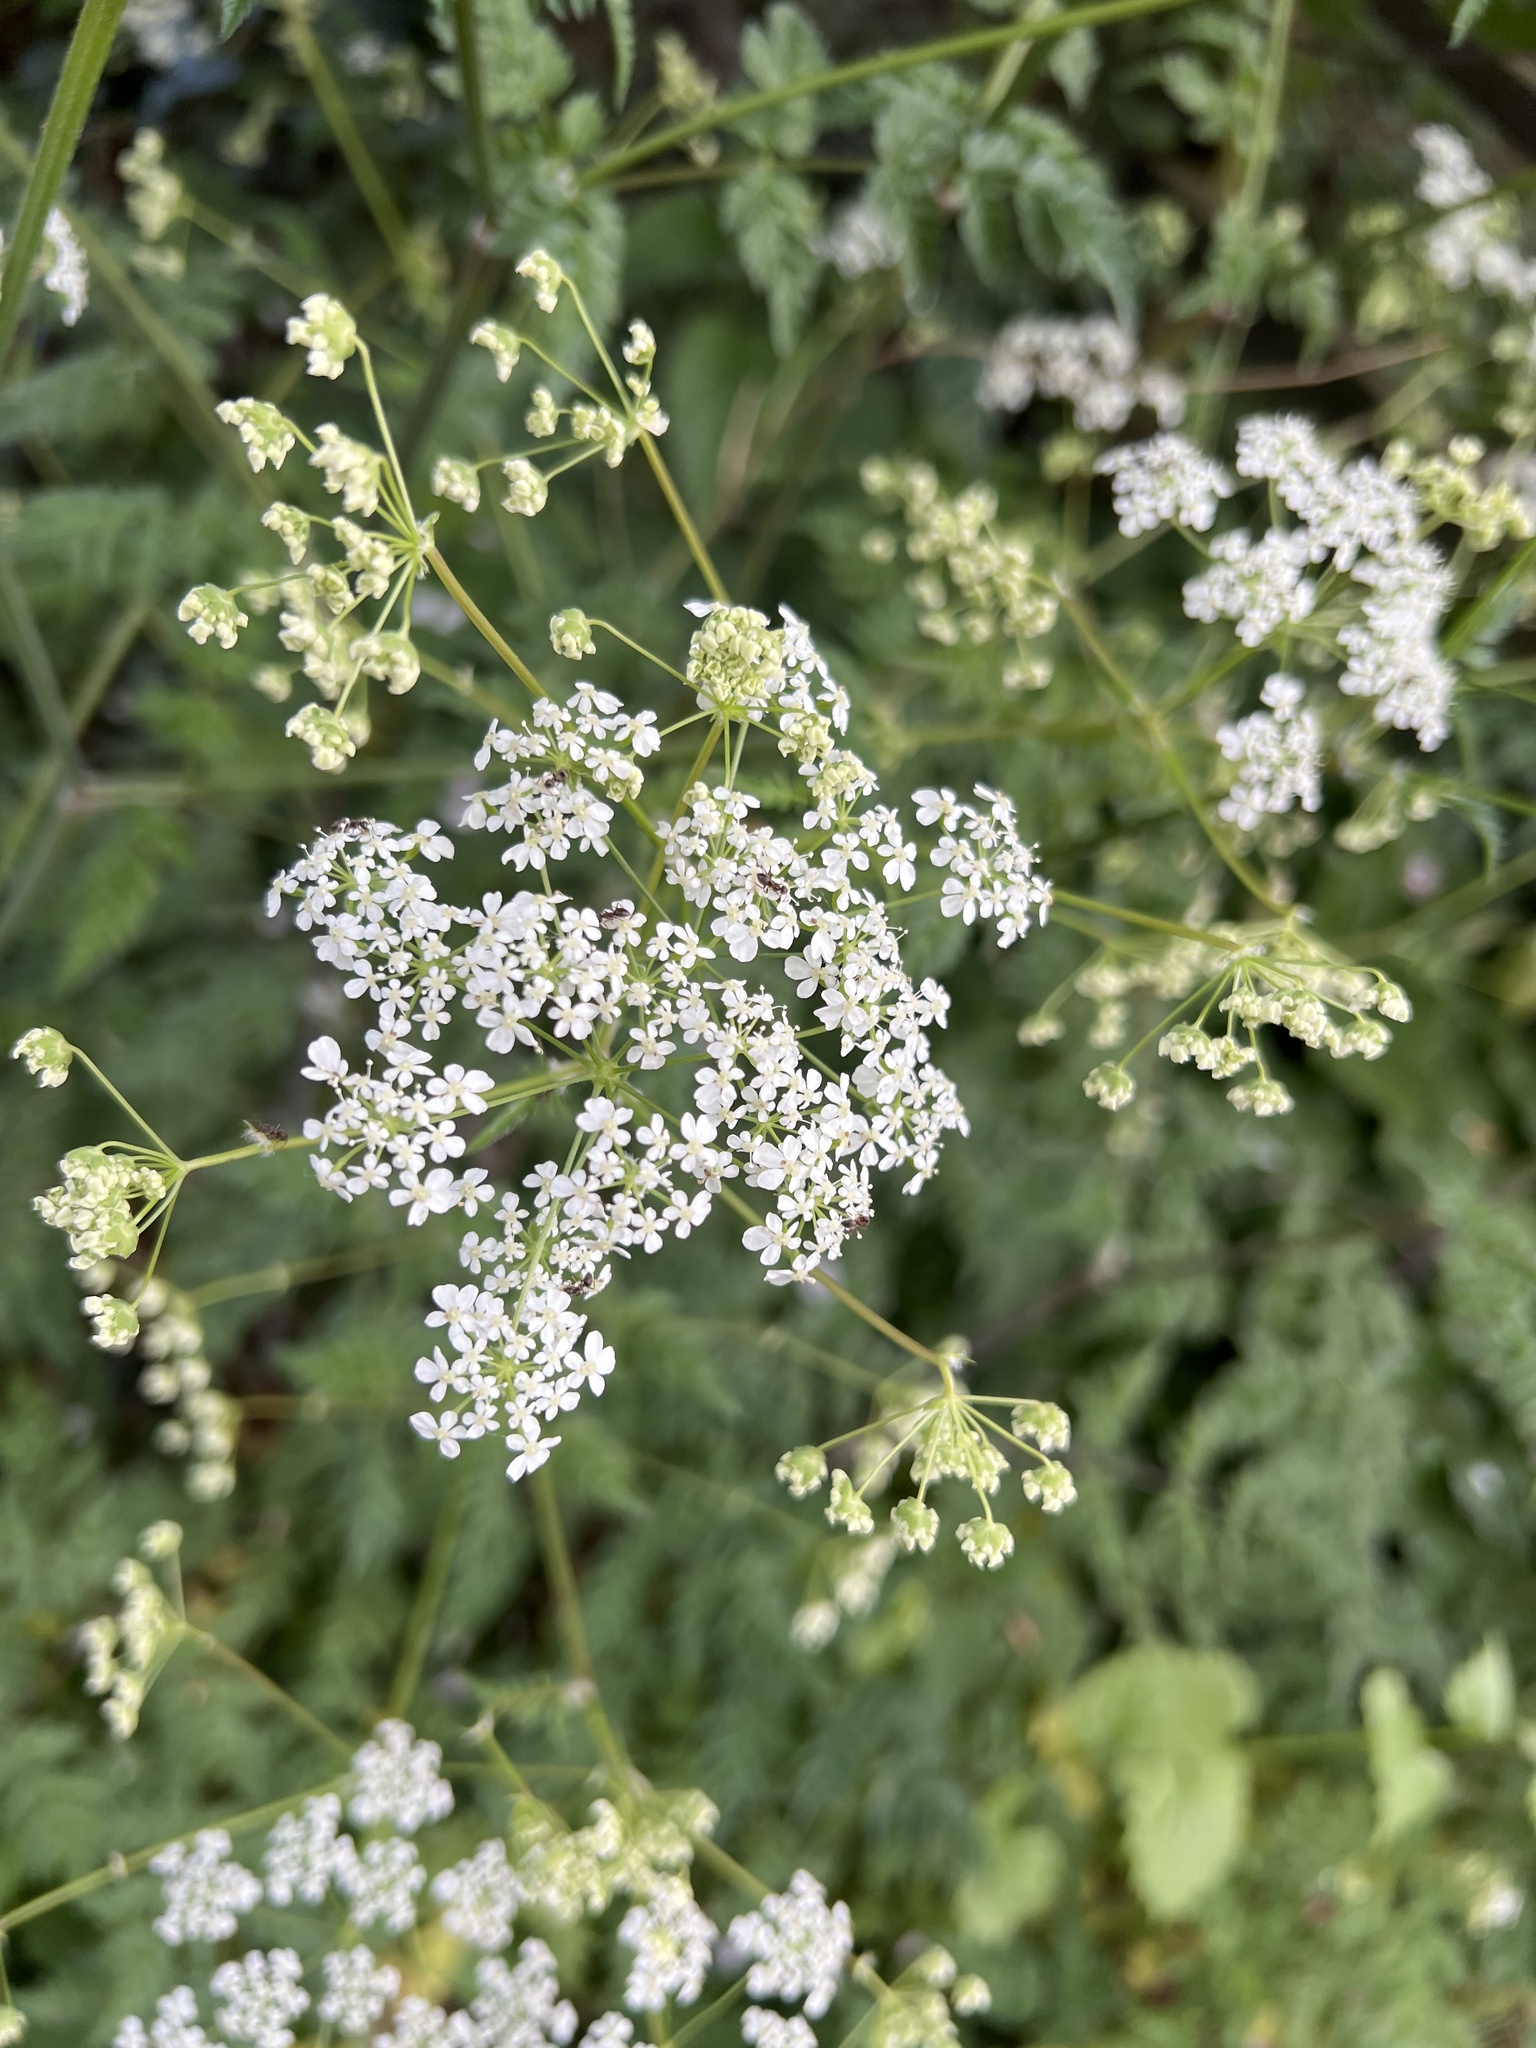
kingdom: Plantae
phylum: Tracheophyta
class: Magnoliopsida
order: Apiales
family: Apiaceae
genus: Anthriscus
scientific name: Anthriscus sylvestris
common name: Cow parsley
